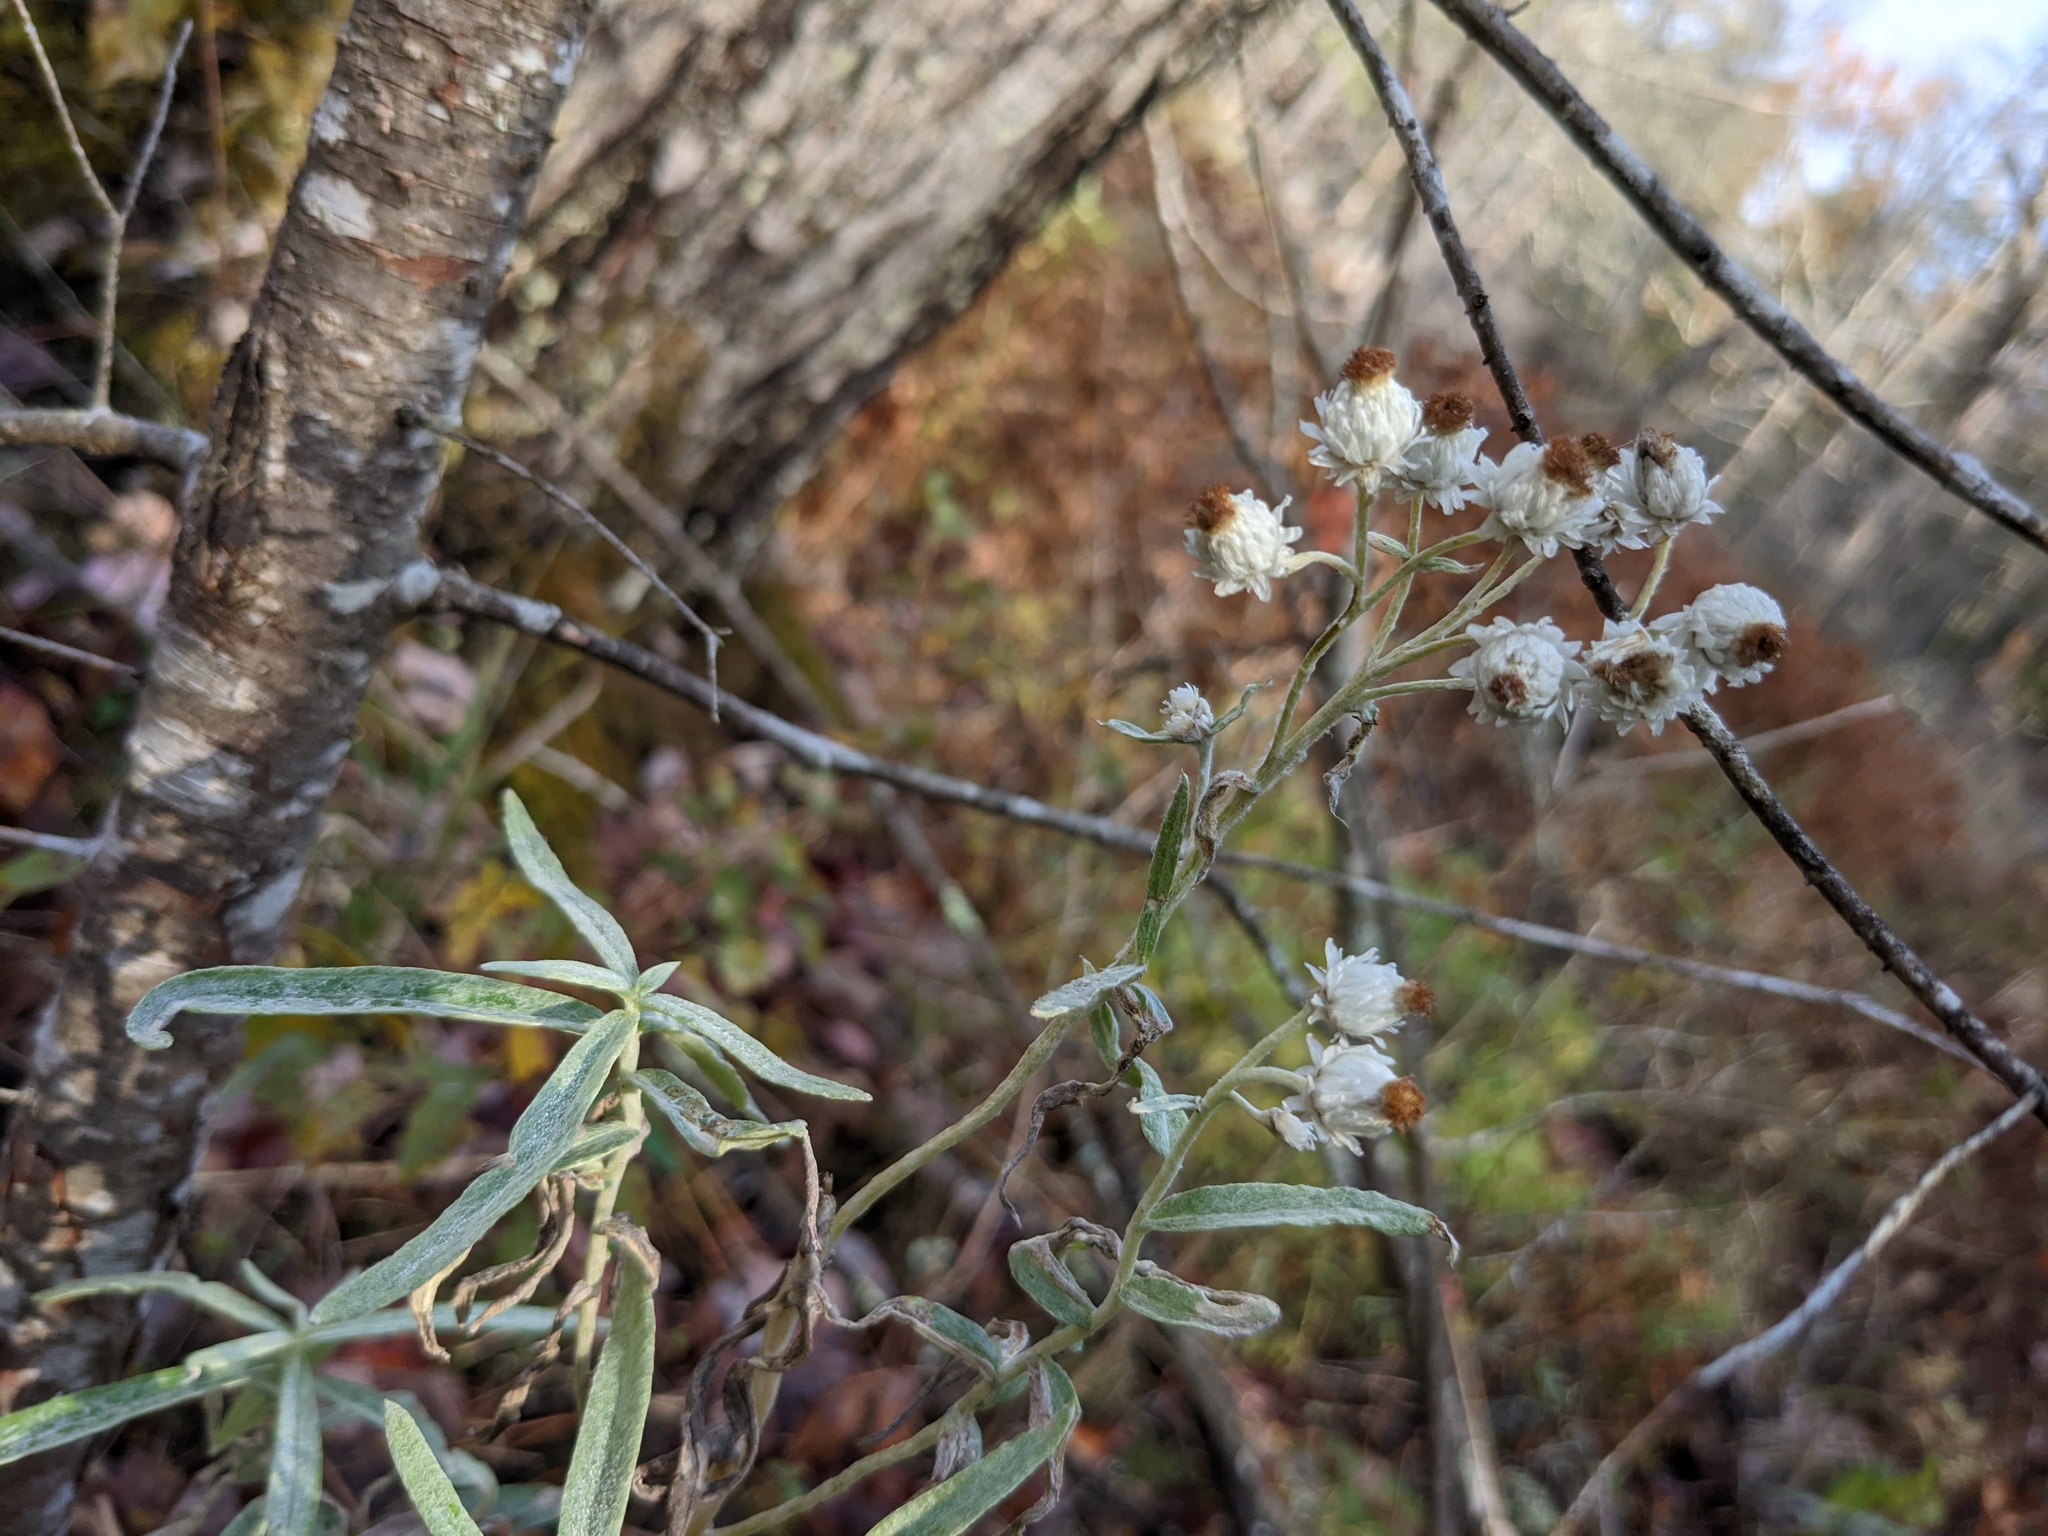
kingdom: Plantae
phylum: Tracheophyta
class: Magnoliopsida
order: Asterales
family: Asteraceae
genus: Anaphalis
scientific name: Anaphalis margaritacea
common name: Pearly everlasting
